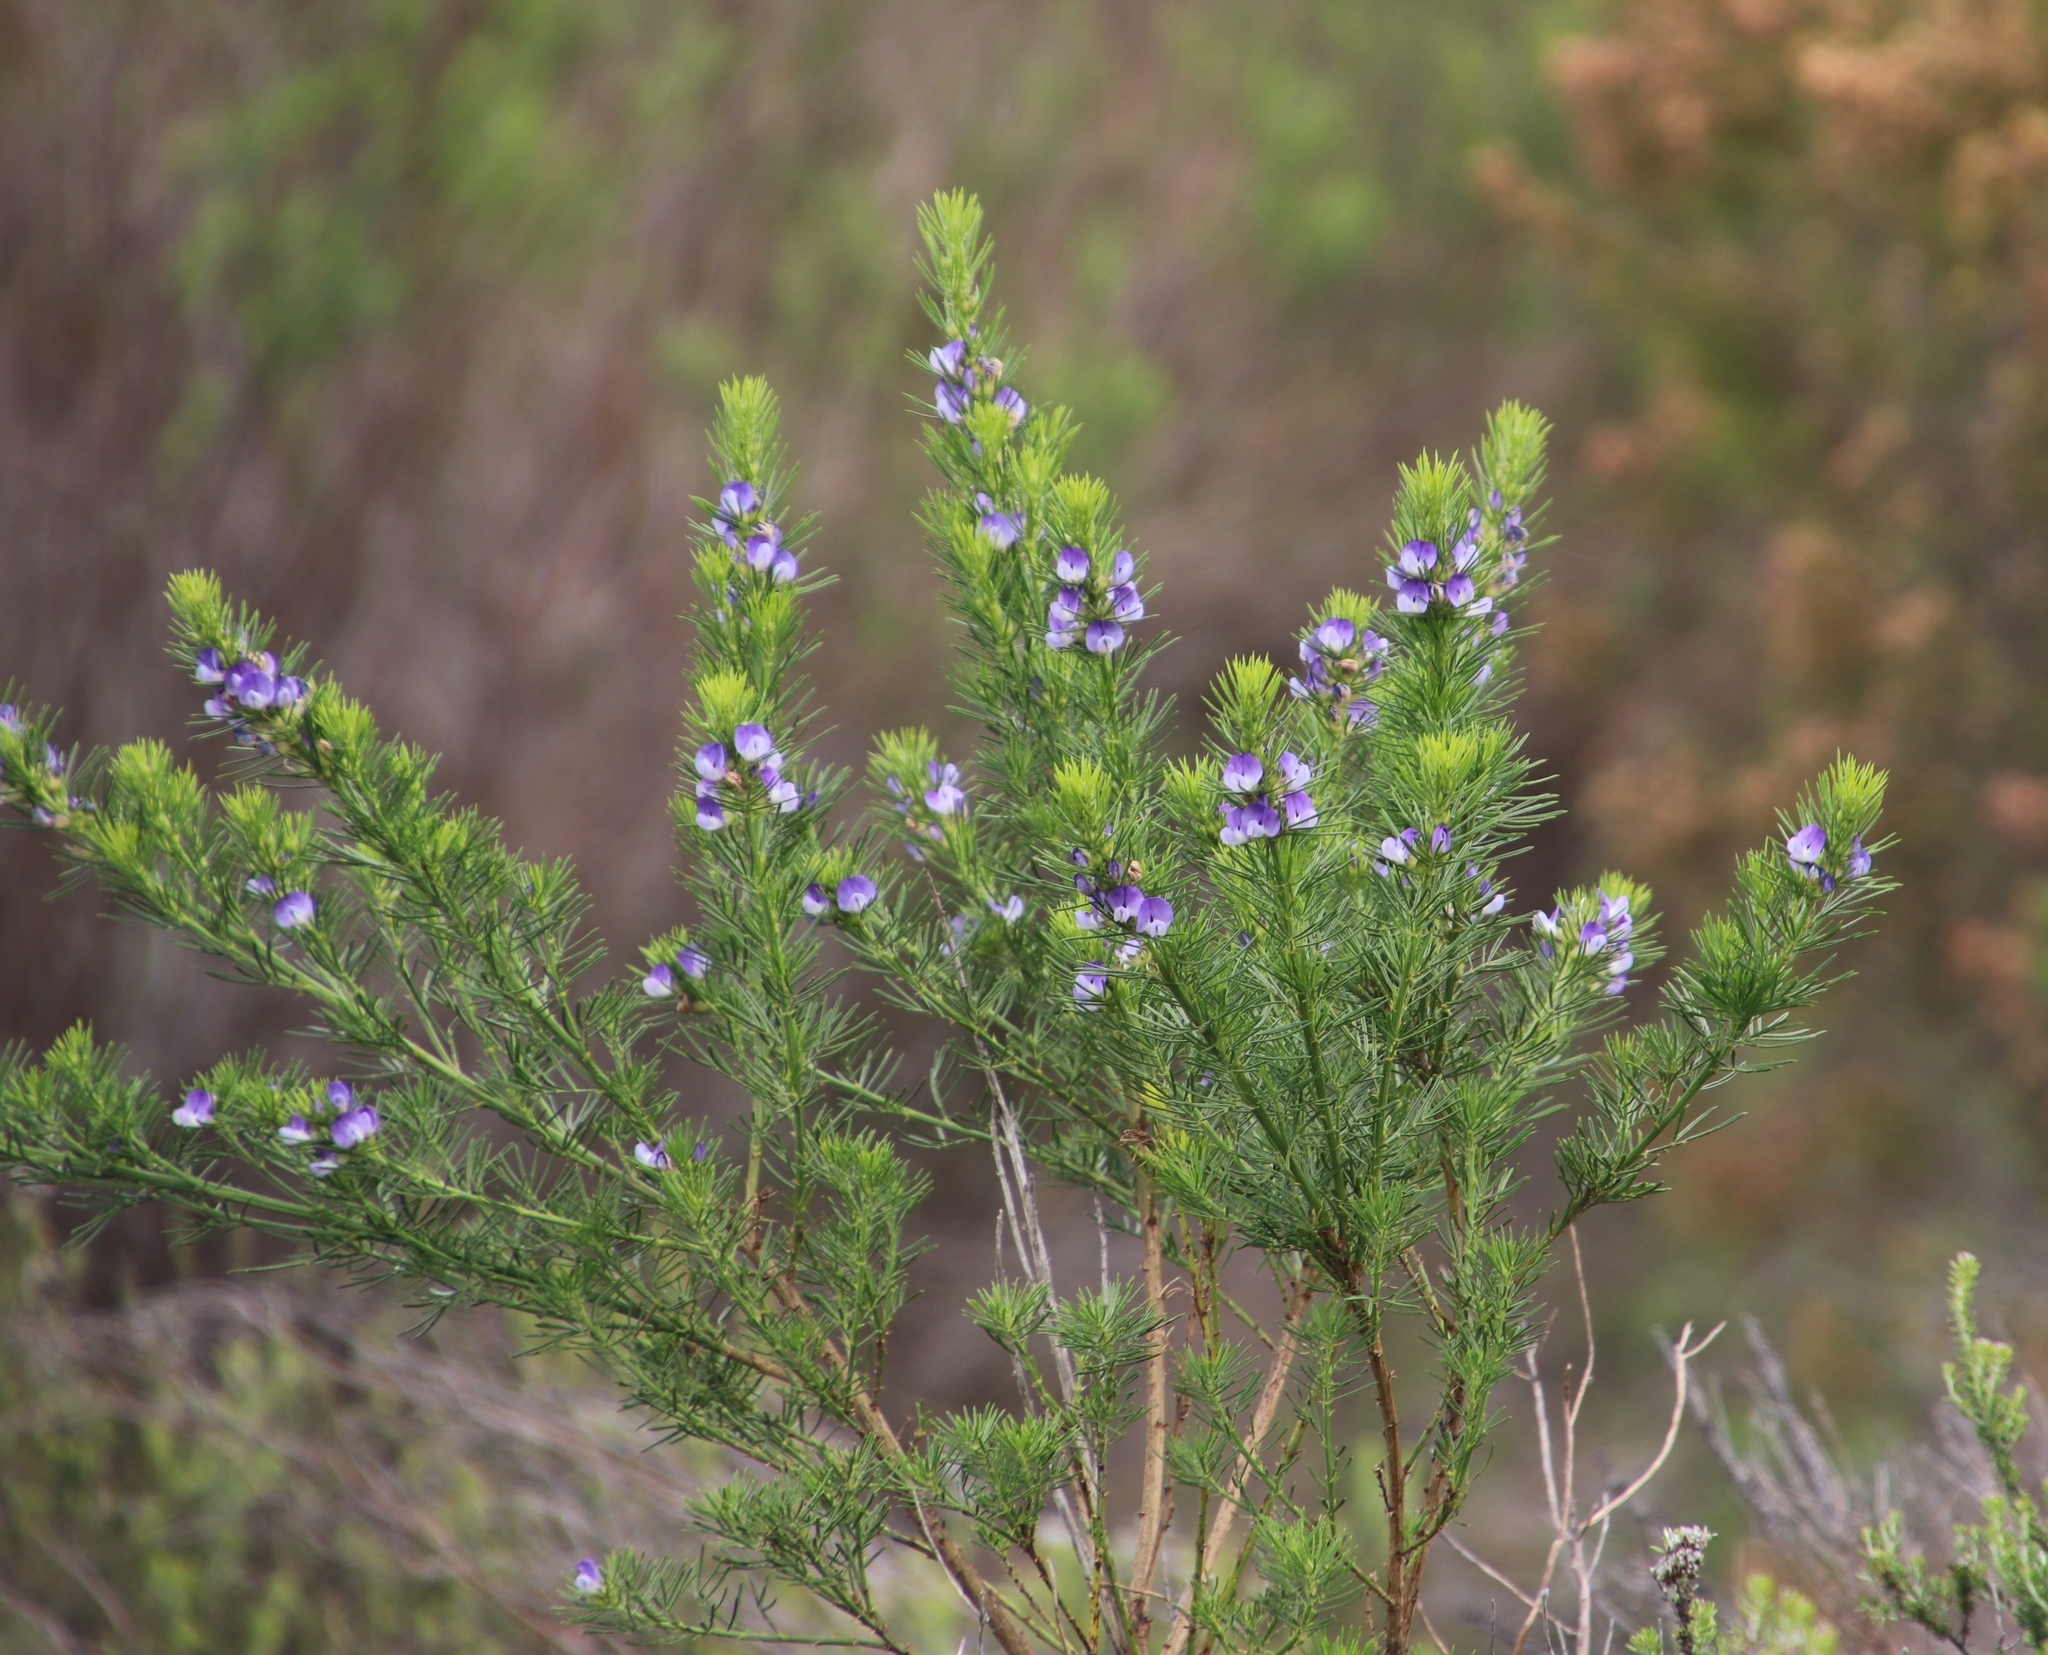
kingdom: Plantae
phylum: Tracheophyta
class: Magnoliopsida
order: Fabales
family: Fabaceae
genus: Psoralea
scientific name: Psoralea pinnata
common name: African scurfpea
